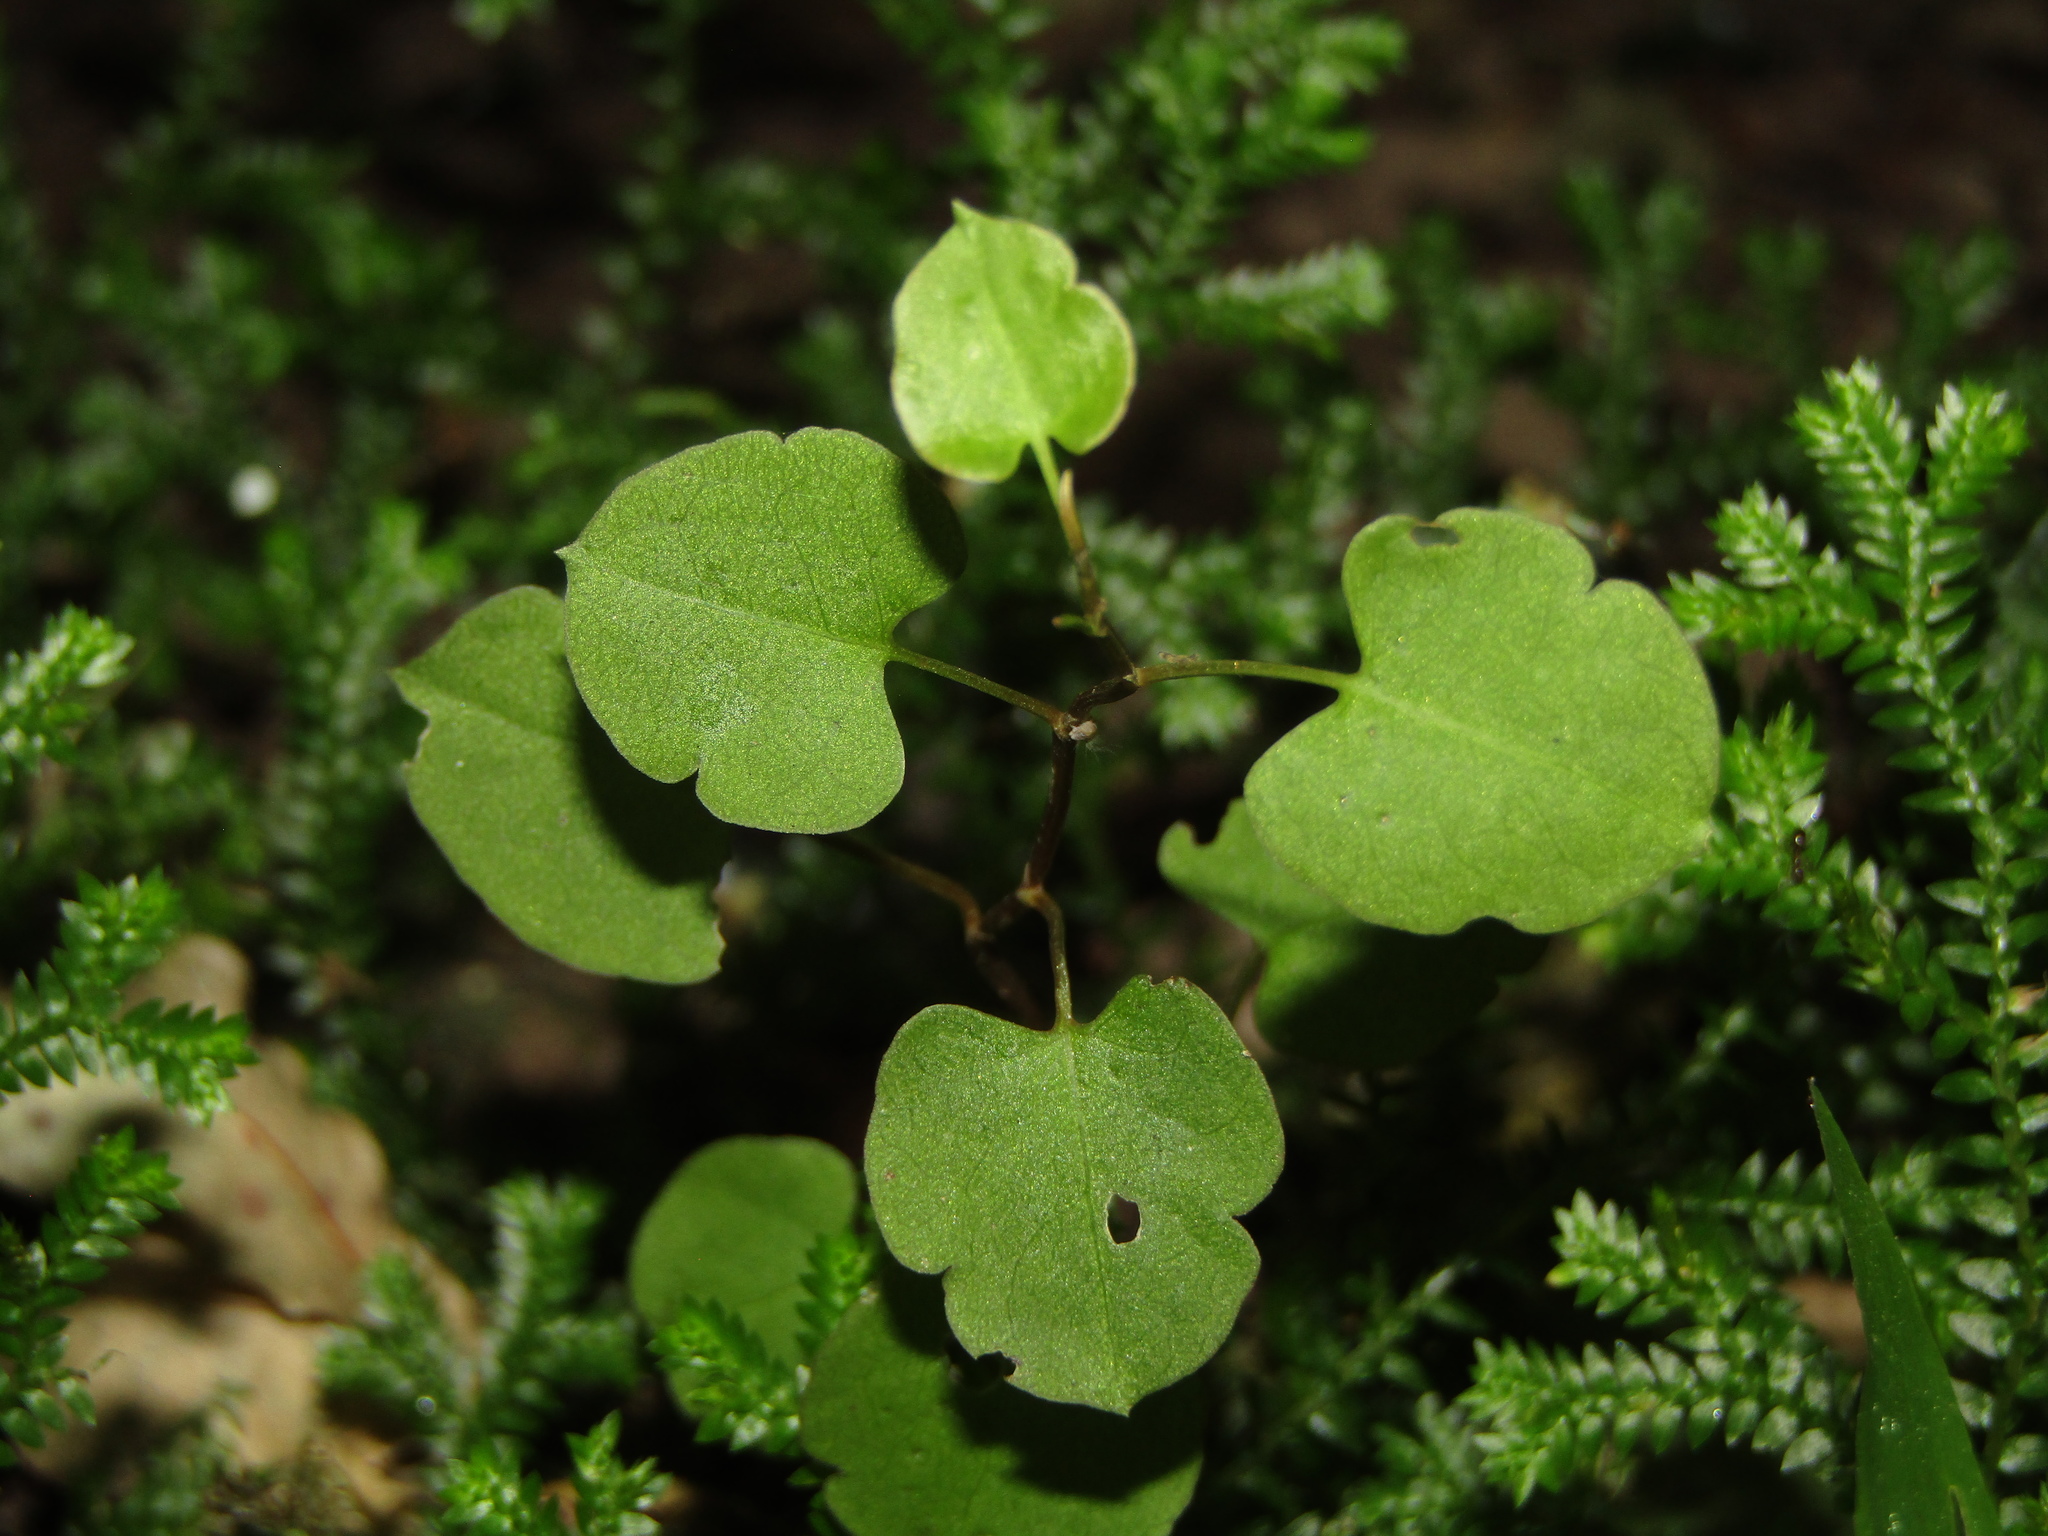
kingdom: Plantae
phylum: Tracheophyta
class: Magnoliopsida
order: Caryophyllales
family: Polygonaceae
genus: Muehlenbeckia
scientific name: Muehlenbeckia australis
